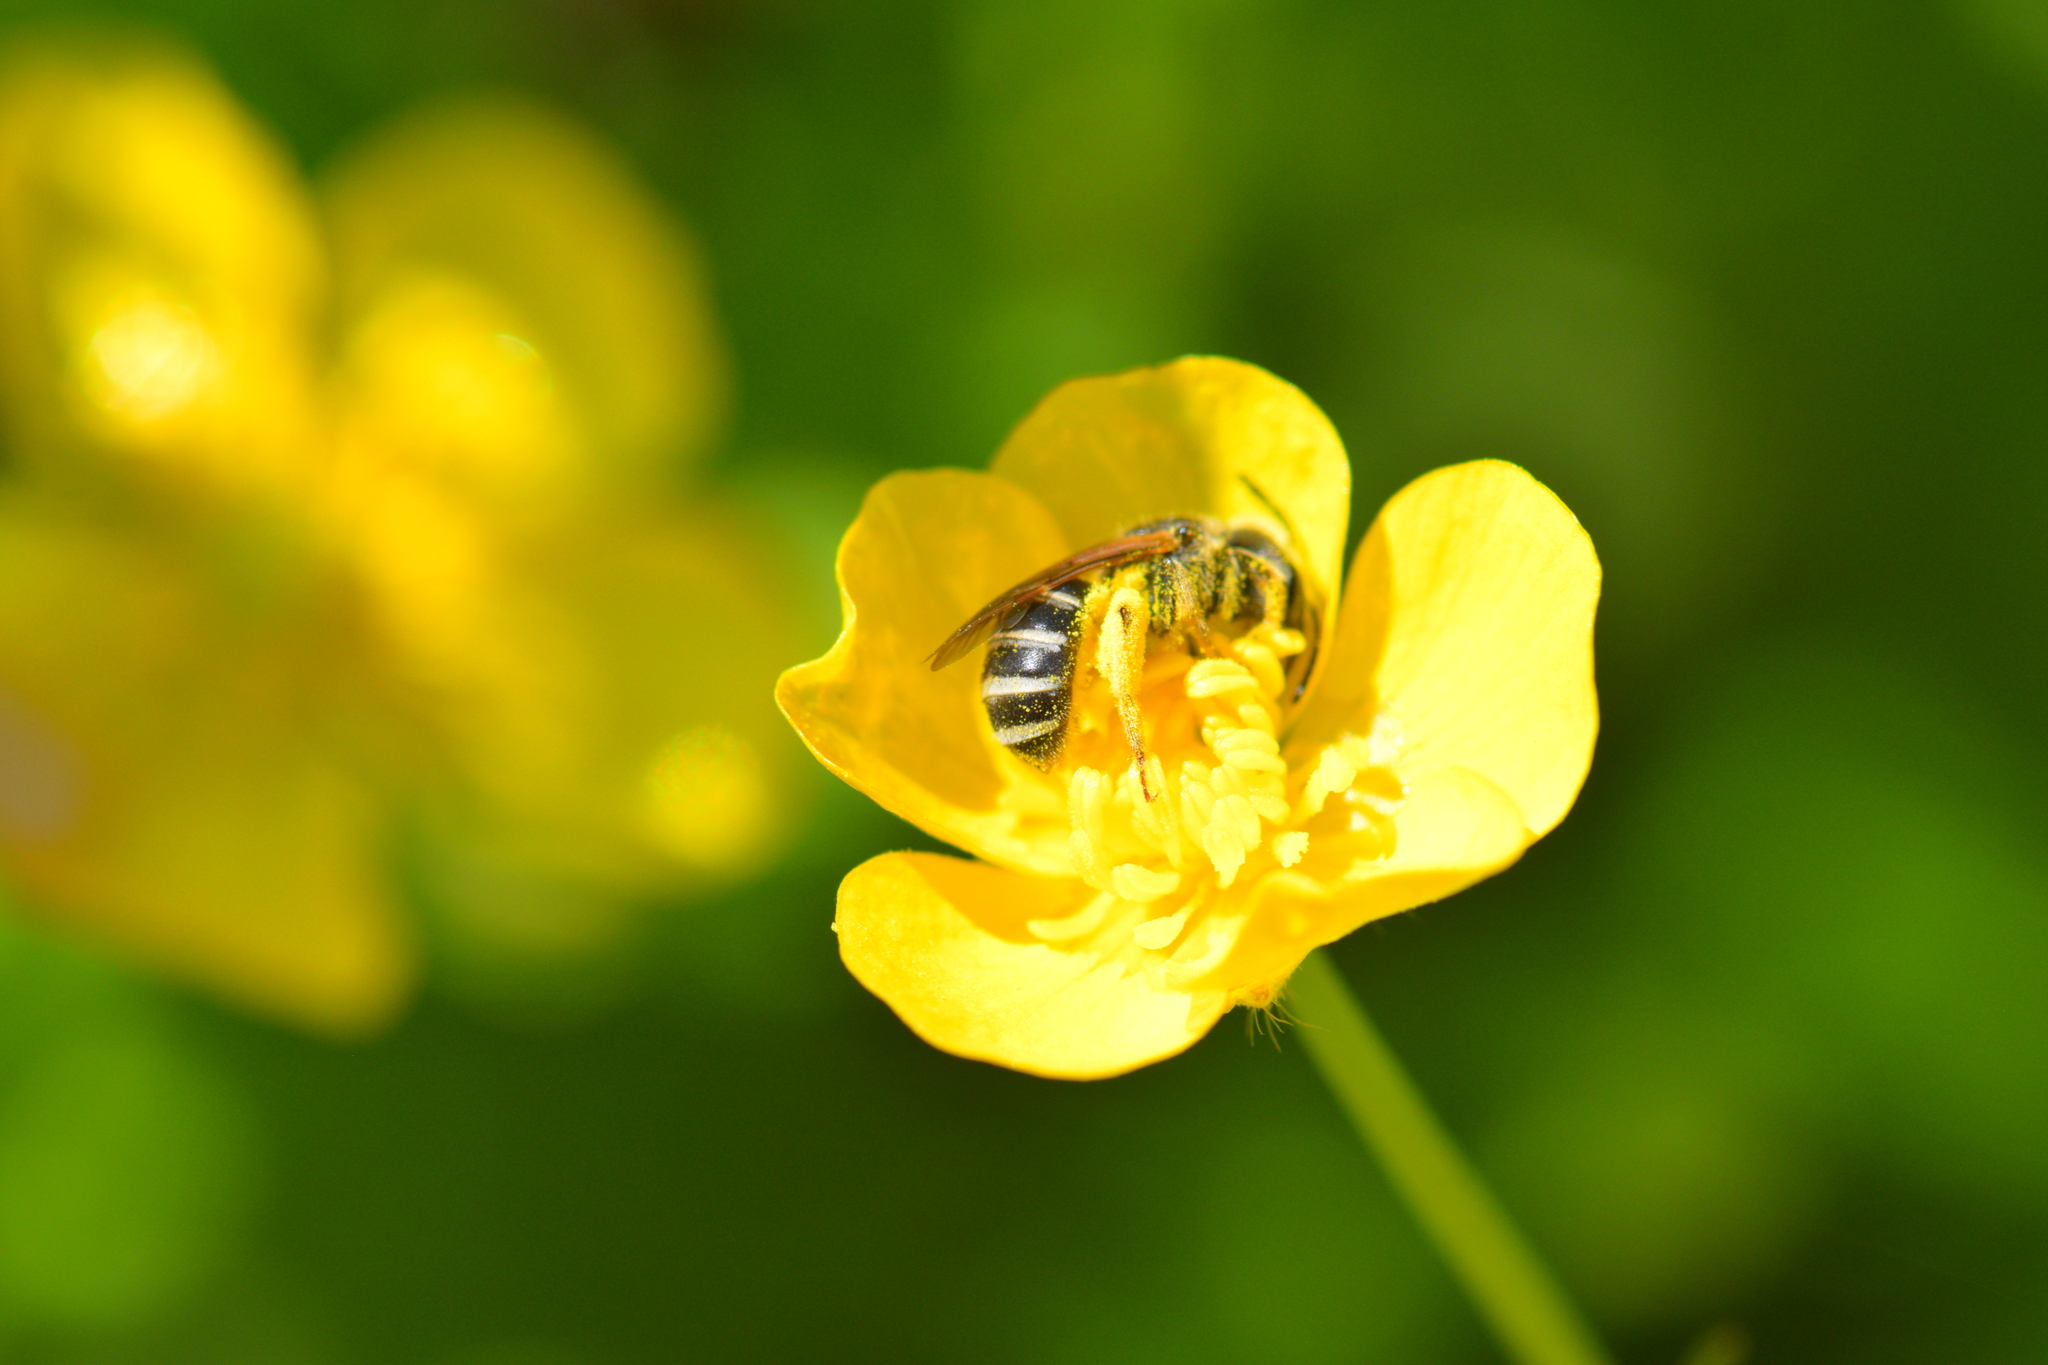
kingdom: Animalia
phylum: Arthropoda
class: Insecta
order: Hymenoptera
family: Halictidae
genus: Halictus
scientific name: Halictus ligatus
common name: Ligated furrow bee
